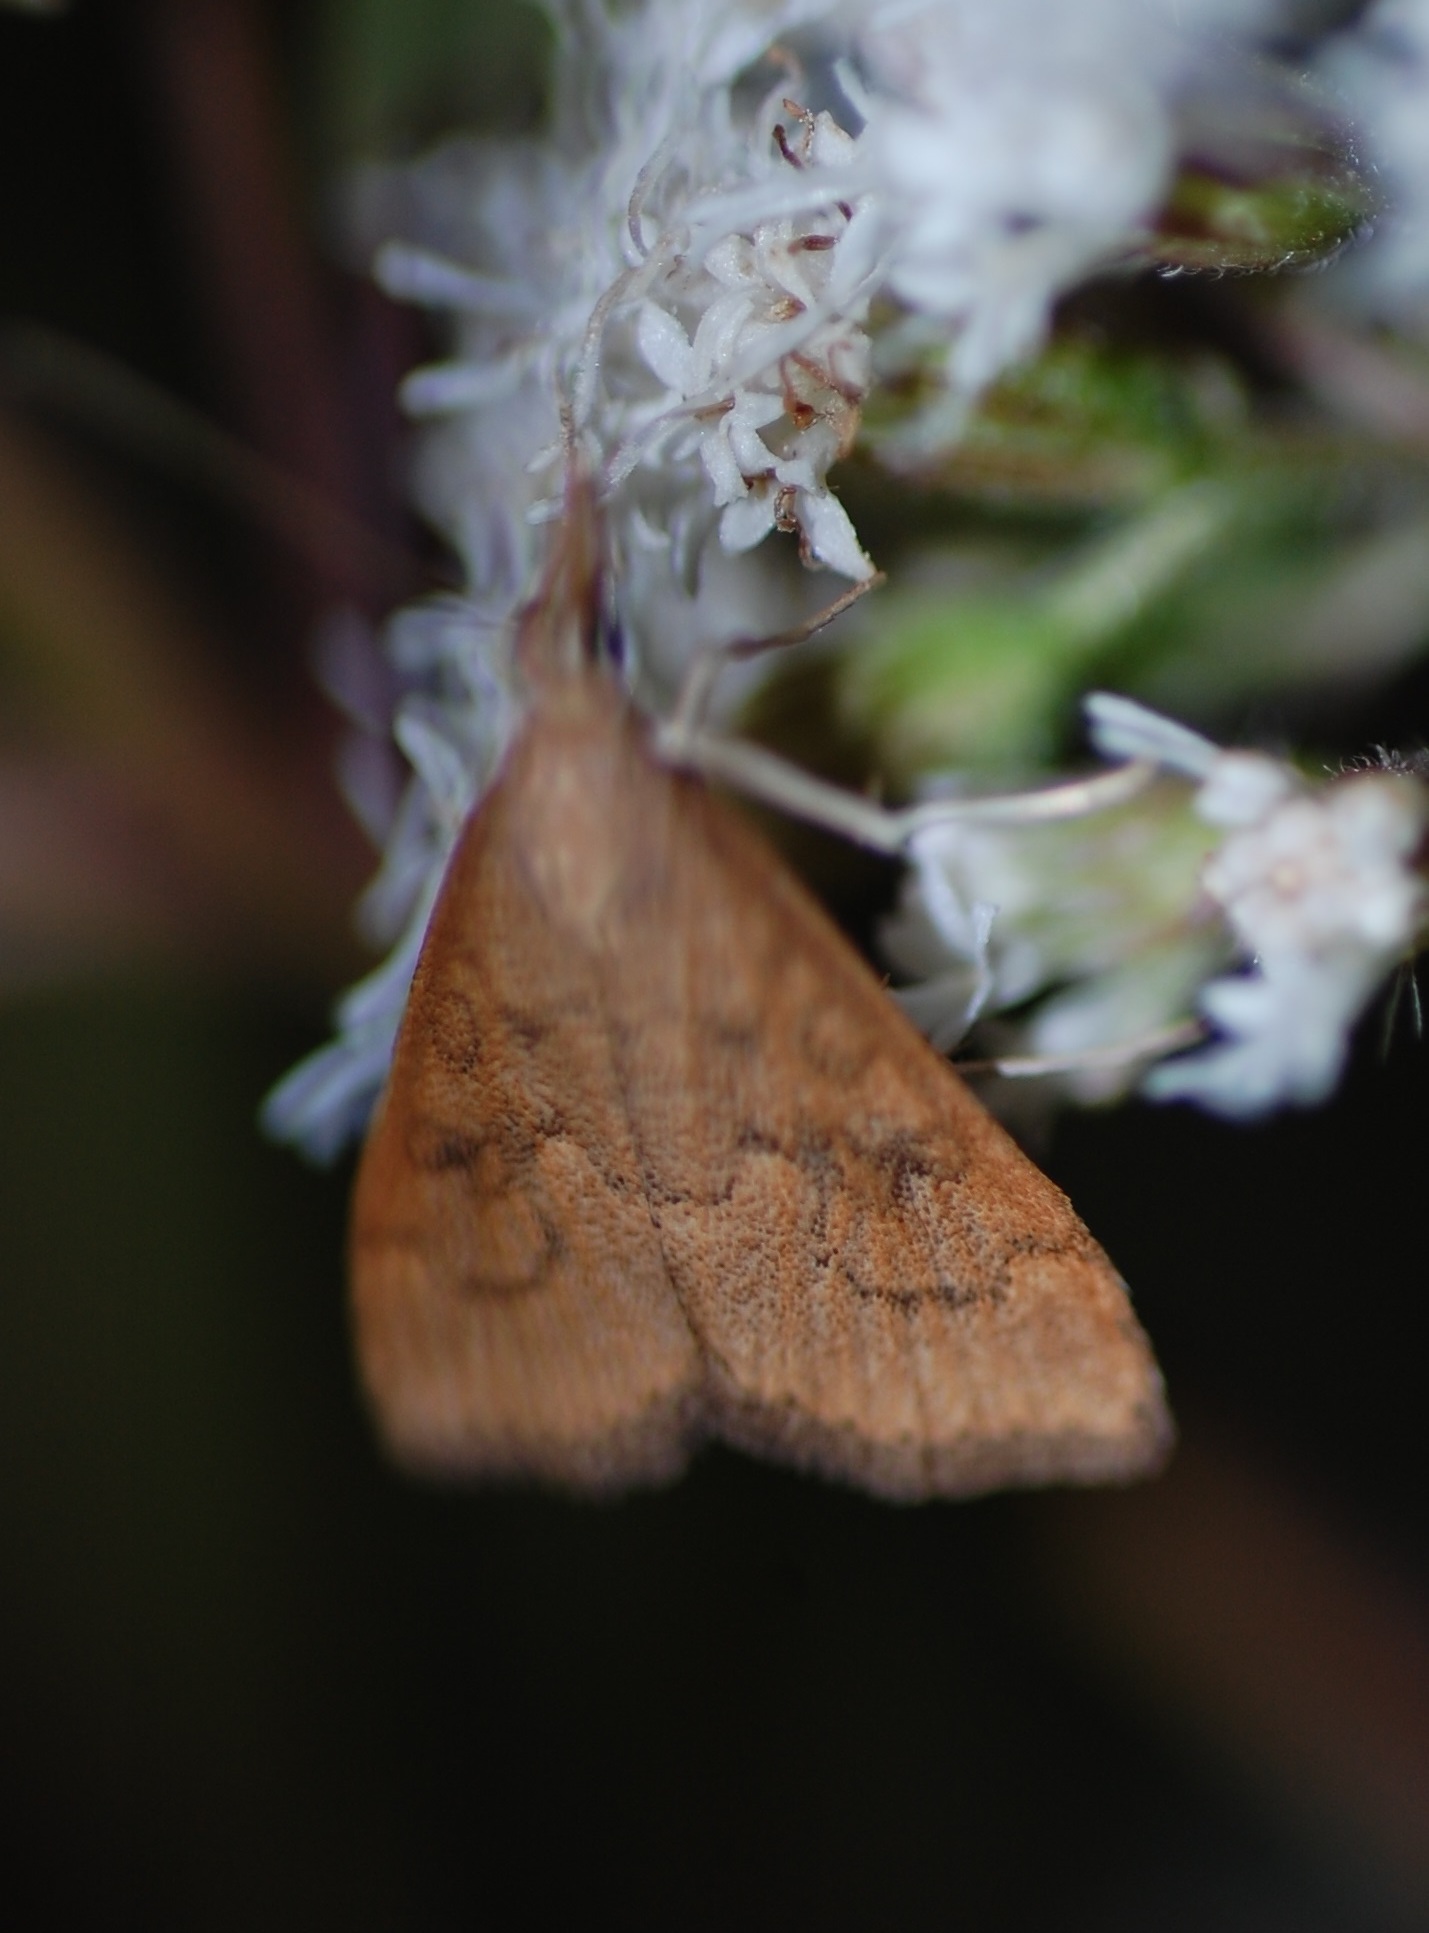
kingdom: Animalia
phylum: Arthropoda
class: Insecta
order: Lepidoptera
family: Crambidae
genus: Udea
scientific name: Udea rubigalis
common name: Celery leaftier moth
